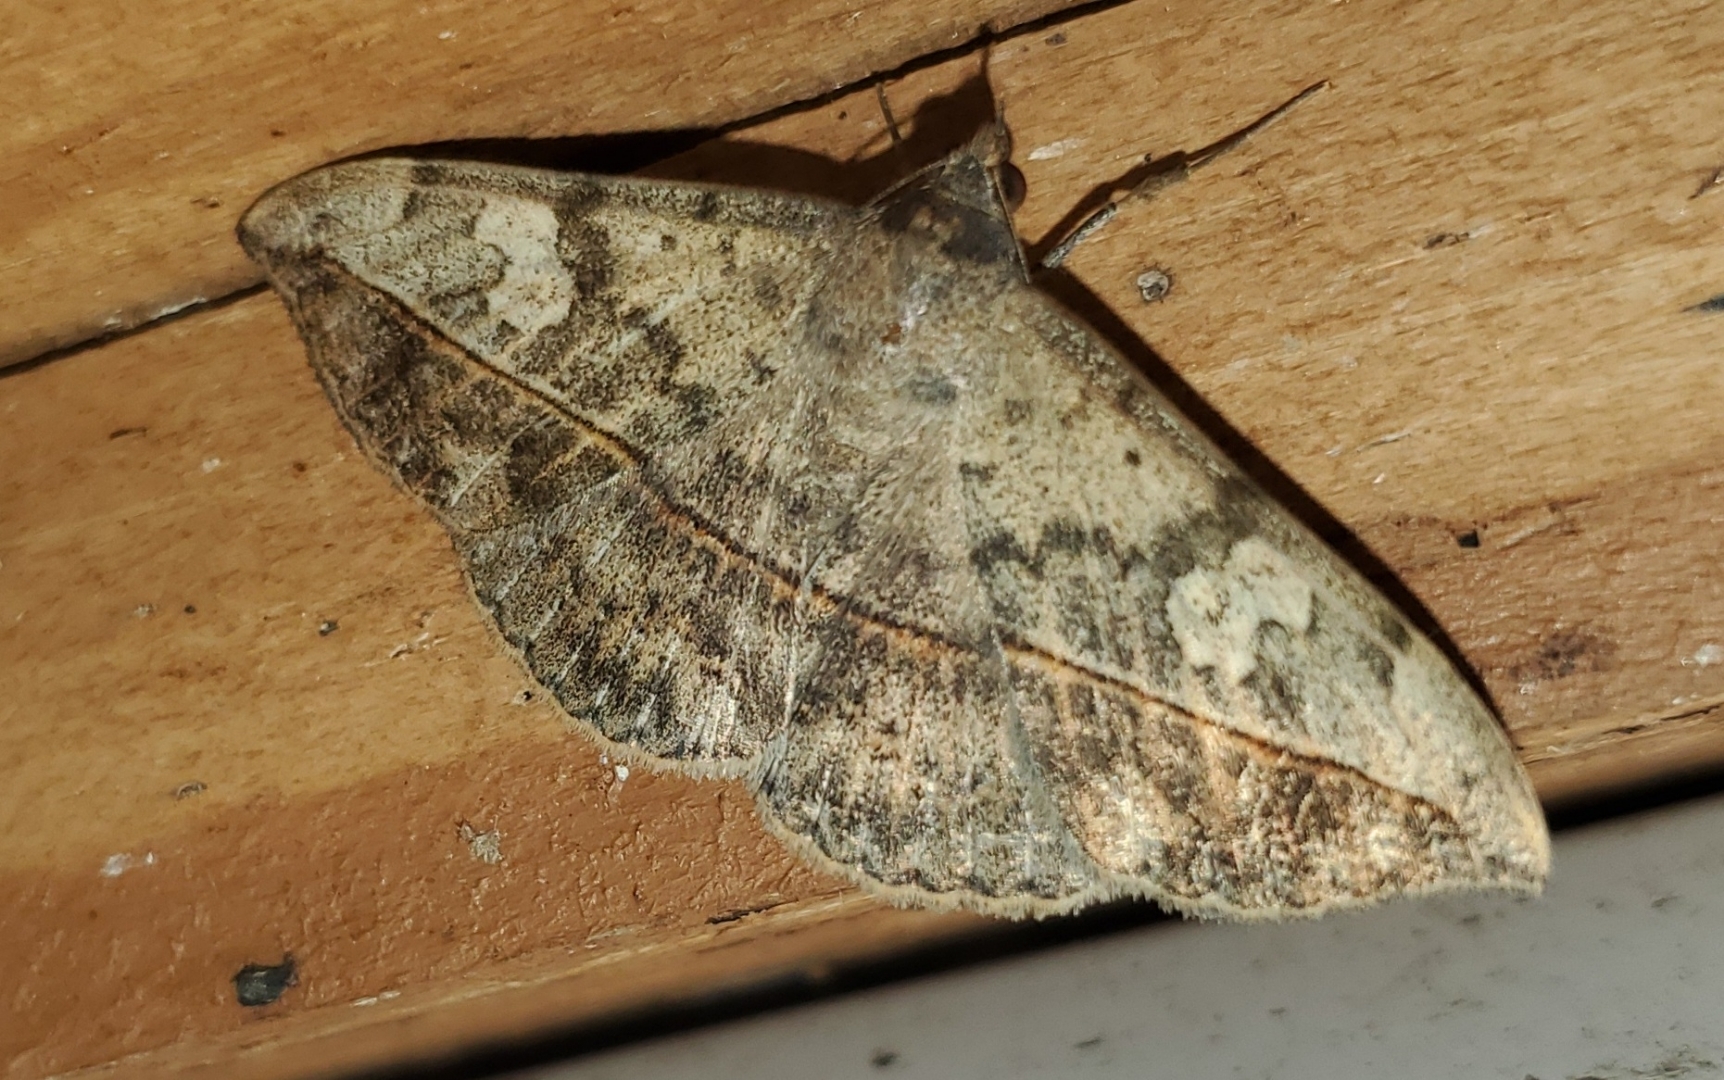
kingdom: Animalia
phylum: Arthropoda
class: Insecta
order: Lepidoptera
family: Erebidae
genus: Anticarsia
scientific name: Anticarsia gemmatalis
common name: Cutworm moth
